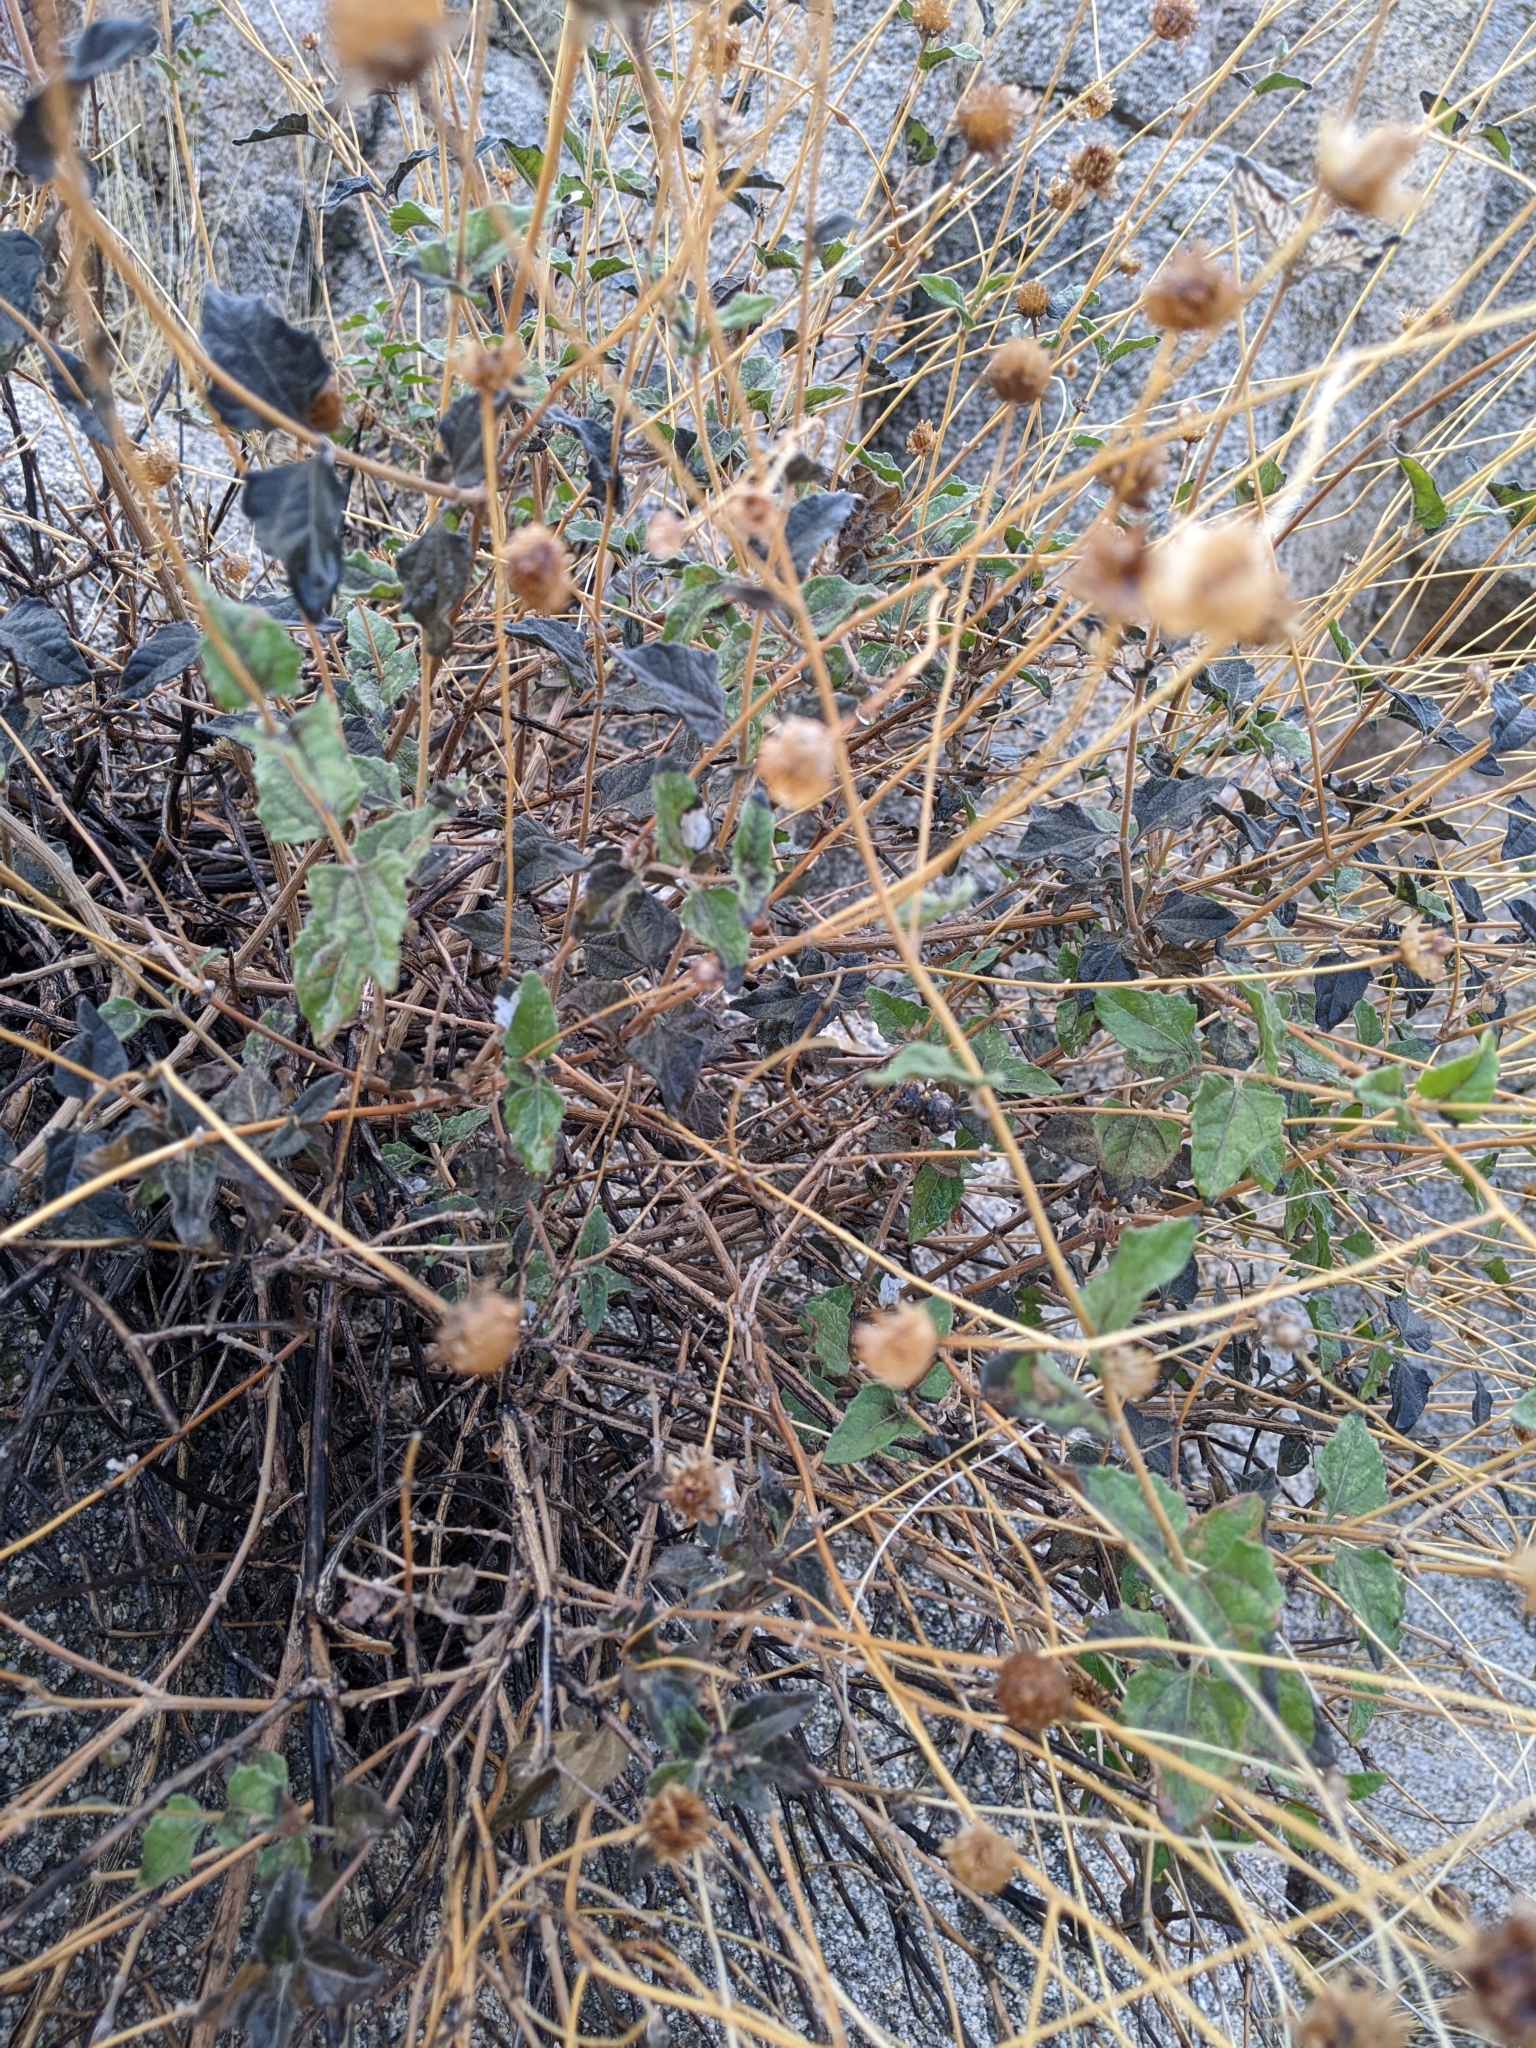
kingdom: Plantae
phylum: Tracheophyta
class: Magnoliopsida
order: Asterales
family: Asteraceae
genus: Bahiopsis
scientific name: Bahiopsis parishii
